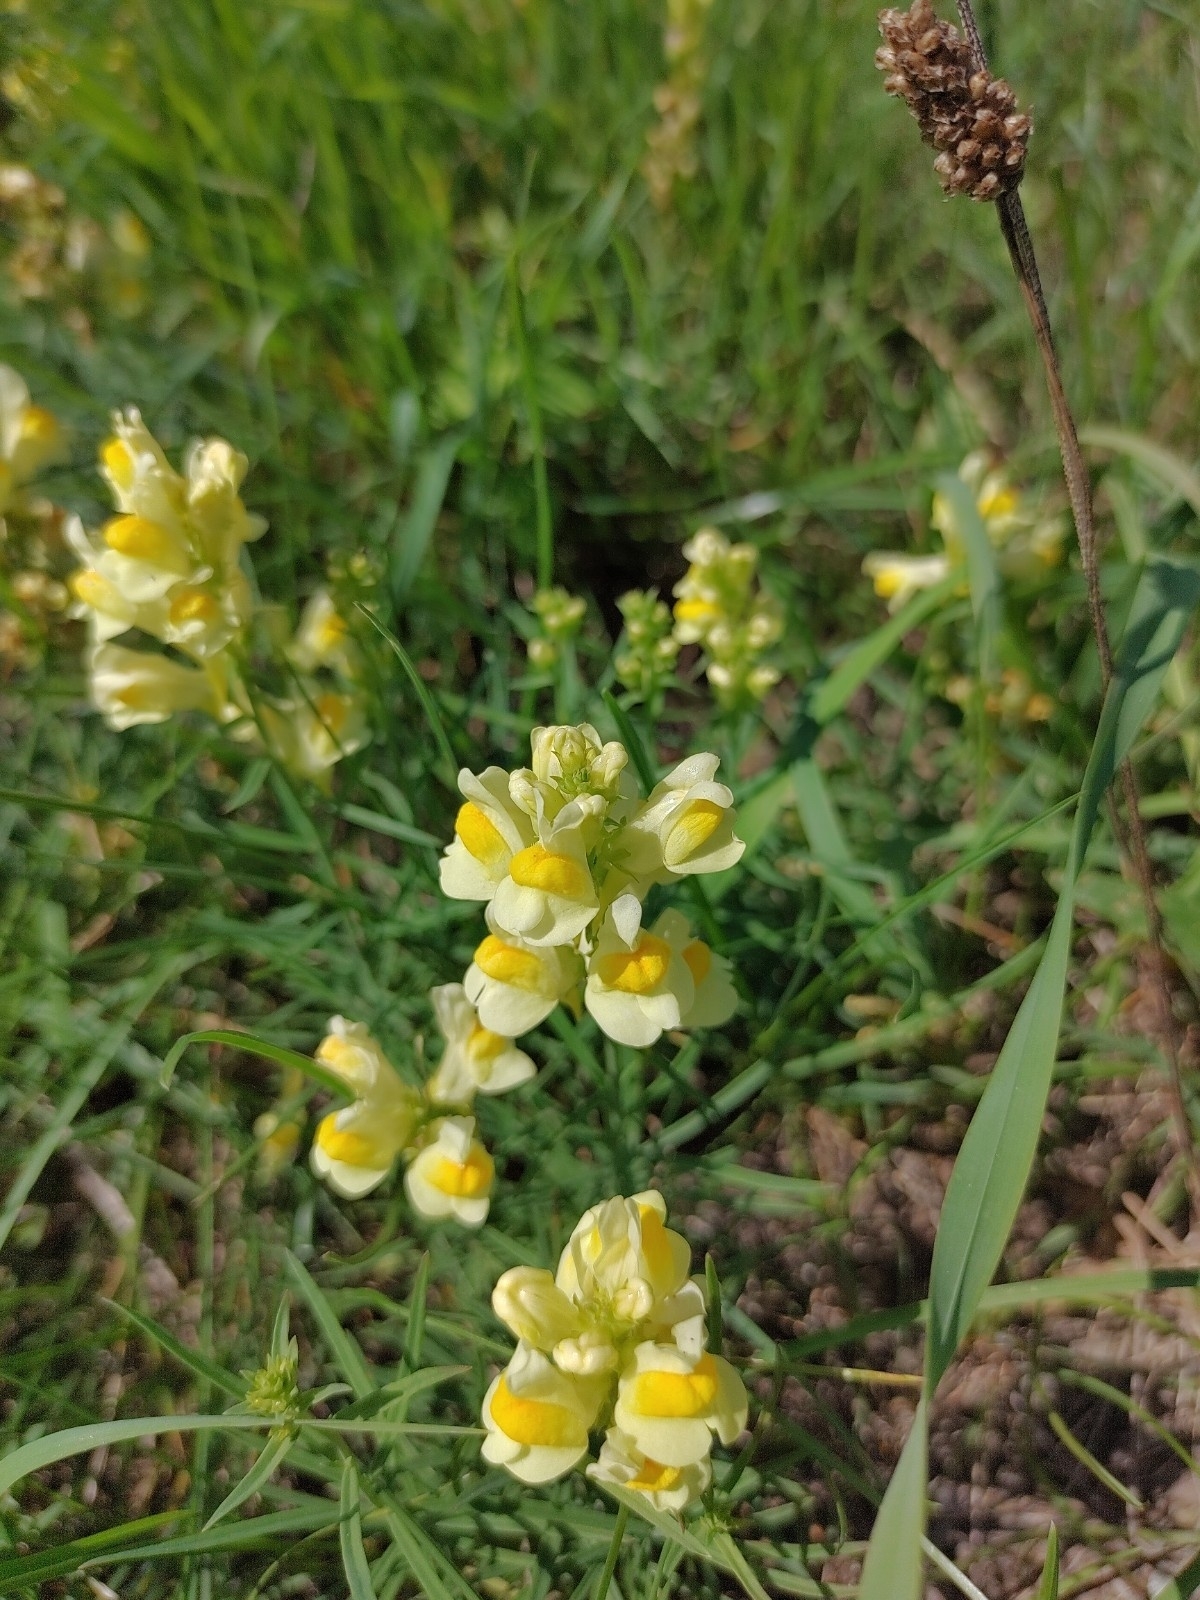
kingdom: Plantae
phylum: Tracheophyta
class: Magnoliopsida
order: Lamiales
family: Plantaginaceae
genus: Linaria
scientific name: Linaria vulgaris
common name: Butter and eggs
